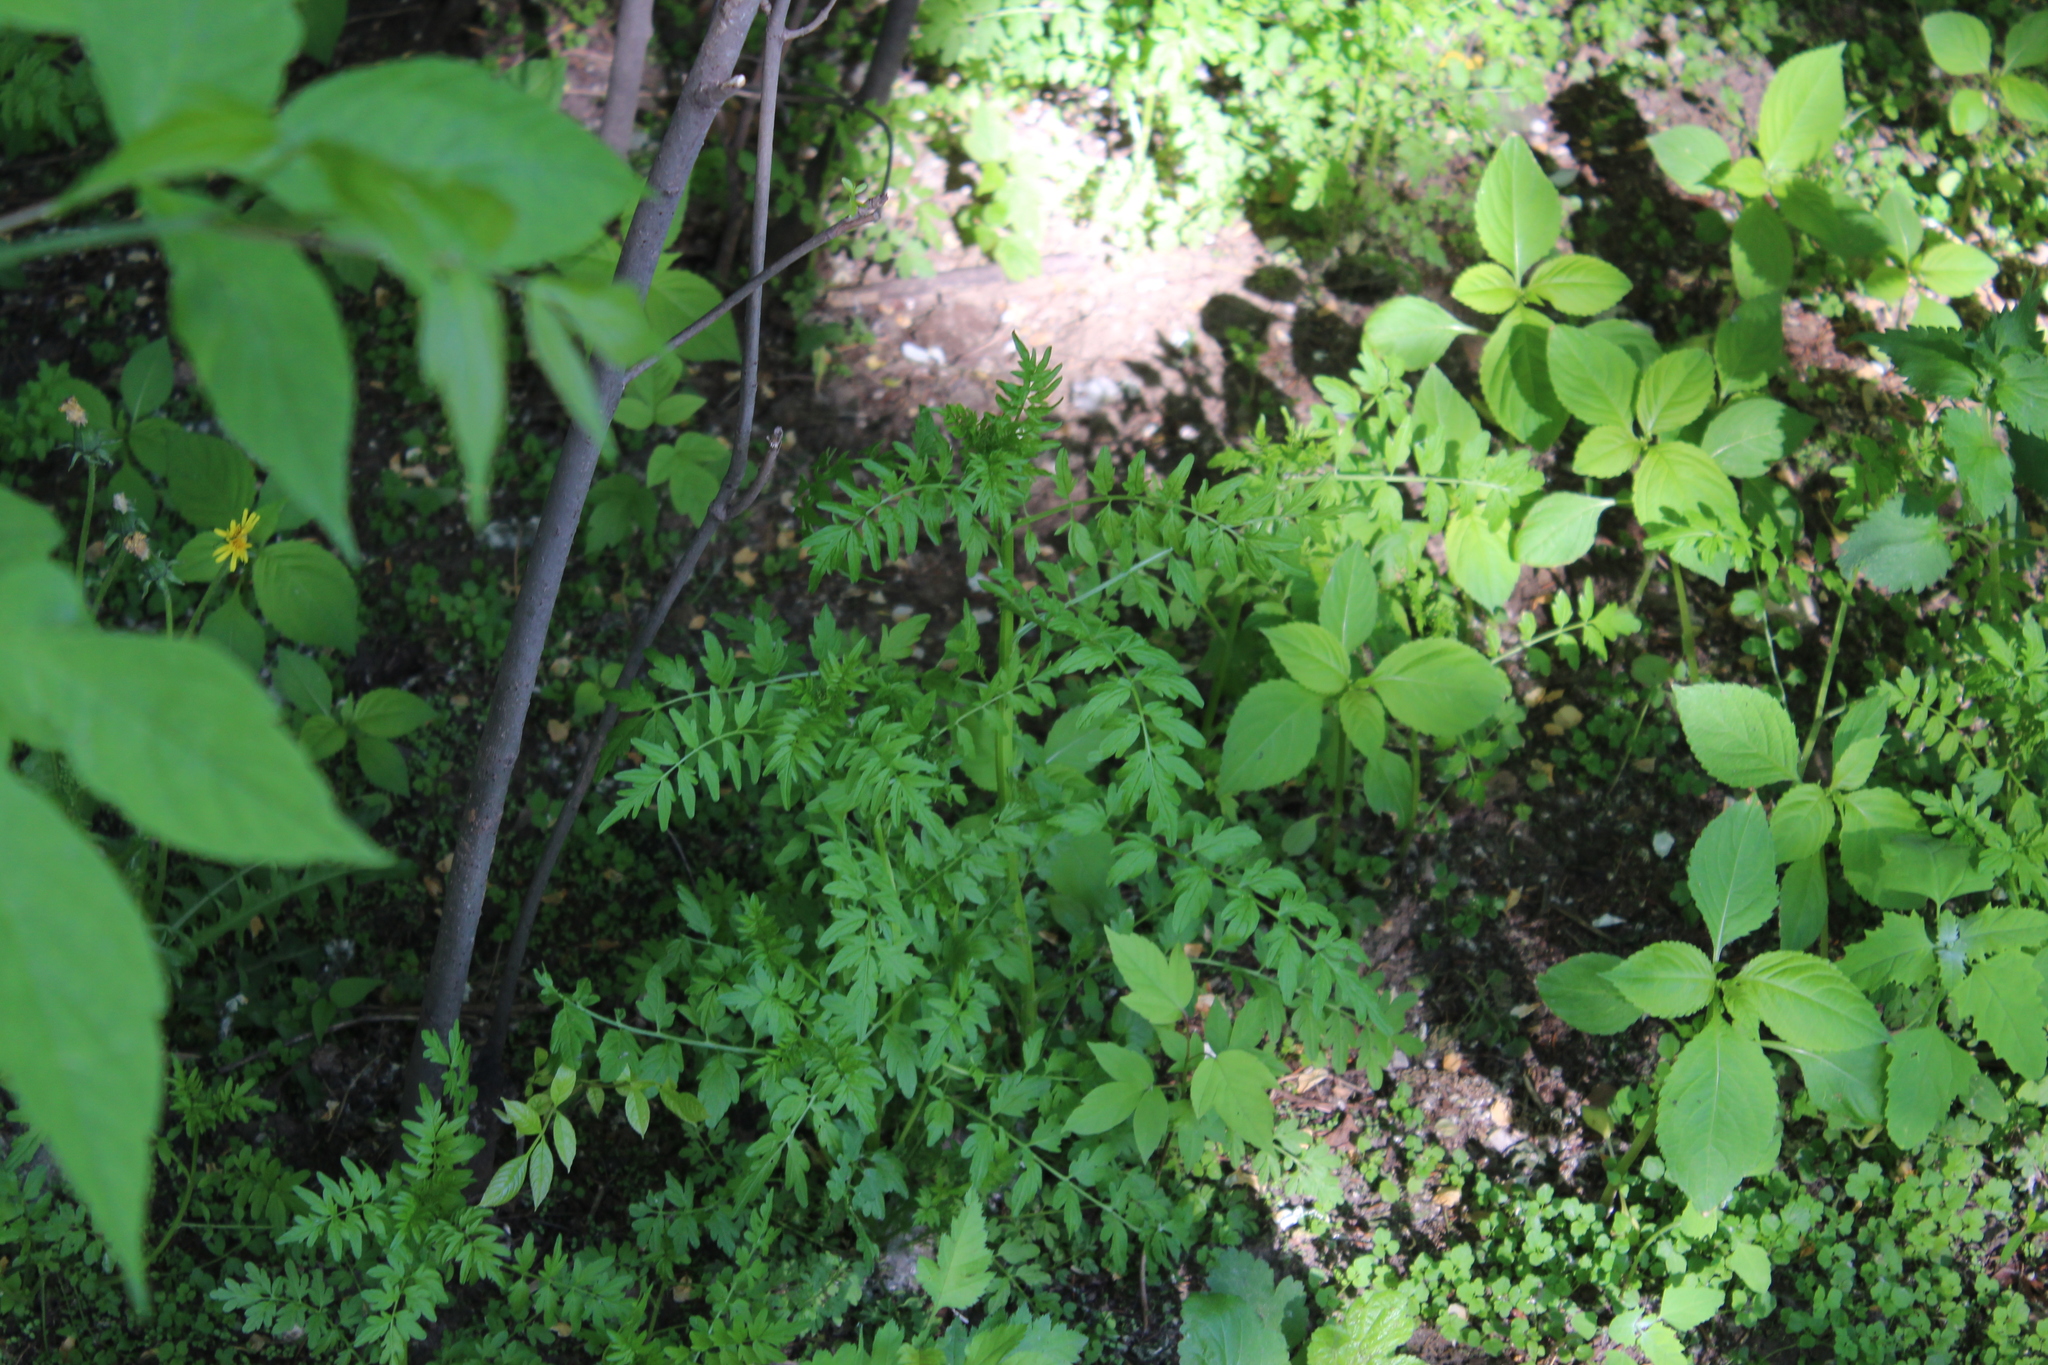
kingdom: Plantae
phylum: Tracheophyta
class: Magnoliopsida
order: Brassicales
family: Brassicaceae
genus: Cardamine
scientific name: Cardamine impatiens
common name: Narrow-leaved bitter-cress
